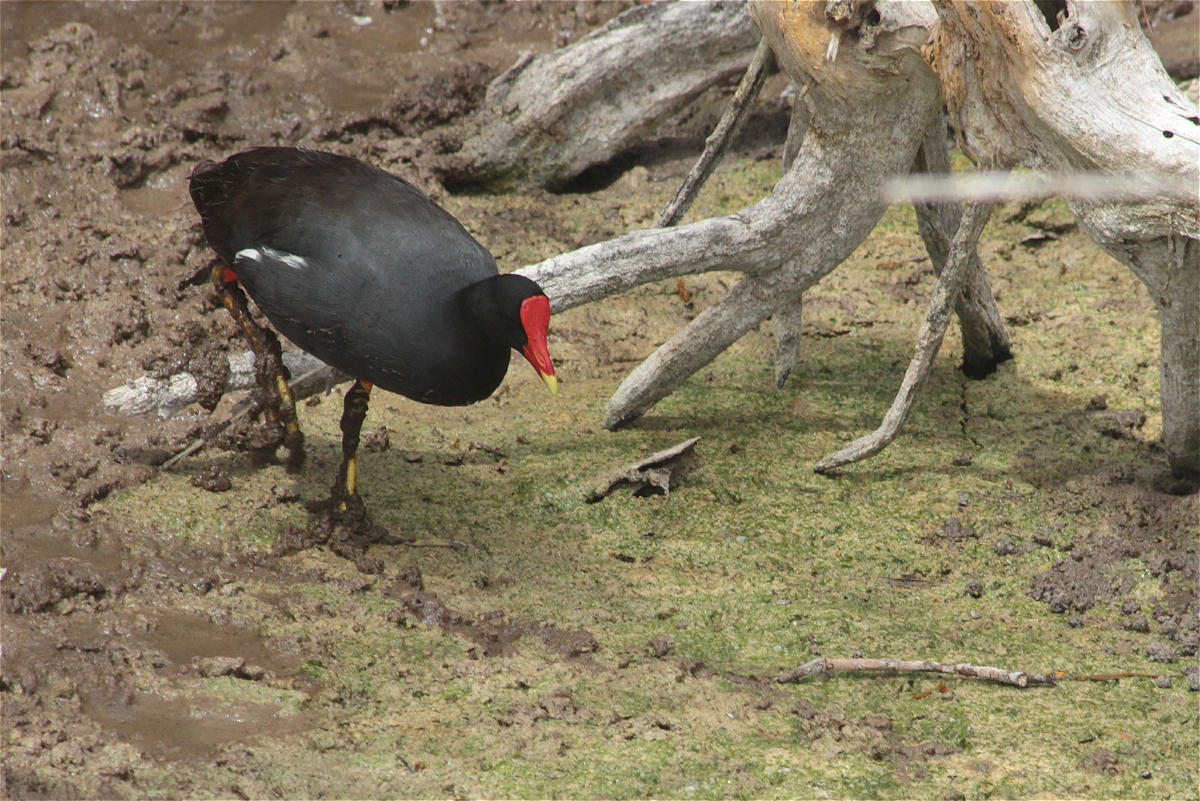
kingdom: Animalia
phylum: Chordata
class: Aves
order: Gruiformes
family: Rallidae
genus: Gallinula
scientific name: Gallinula chloropus
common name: Common moorhen
